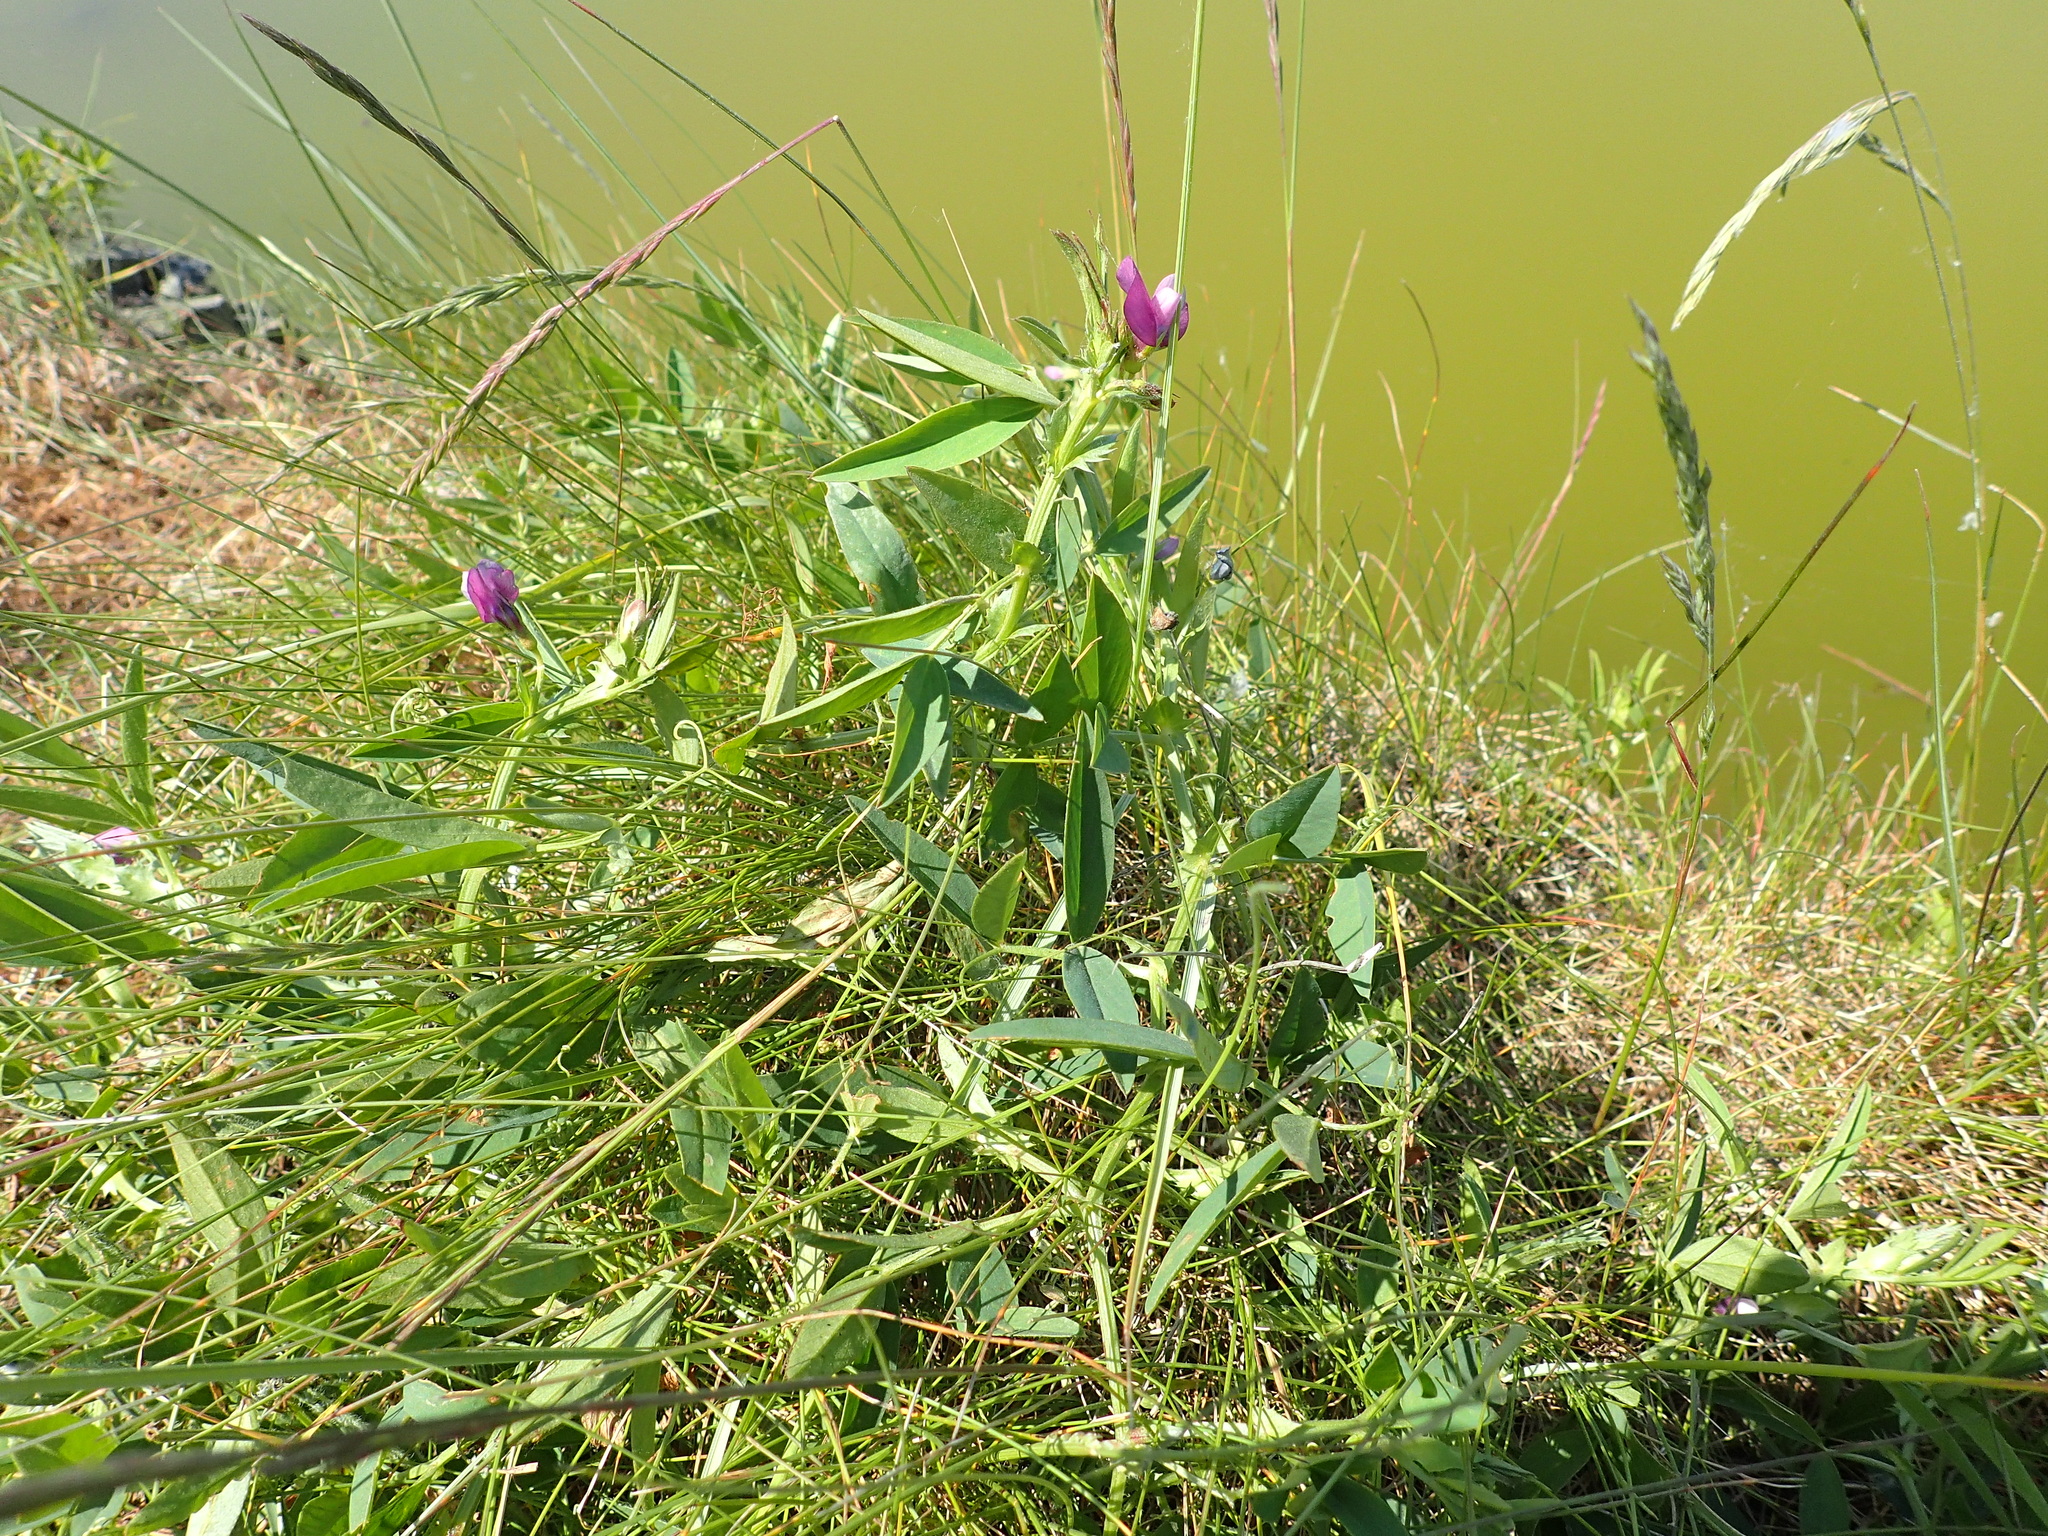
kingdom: Plantae
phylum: Tracheophyta
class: Magnoliopsida
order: Fabales
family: Fabaceae
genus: Vicia
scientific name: Vicia bithynica
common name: Bithynian vetch
